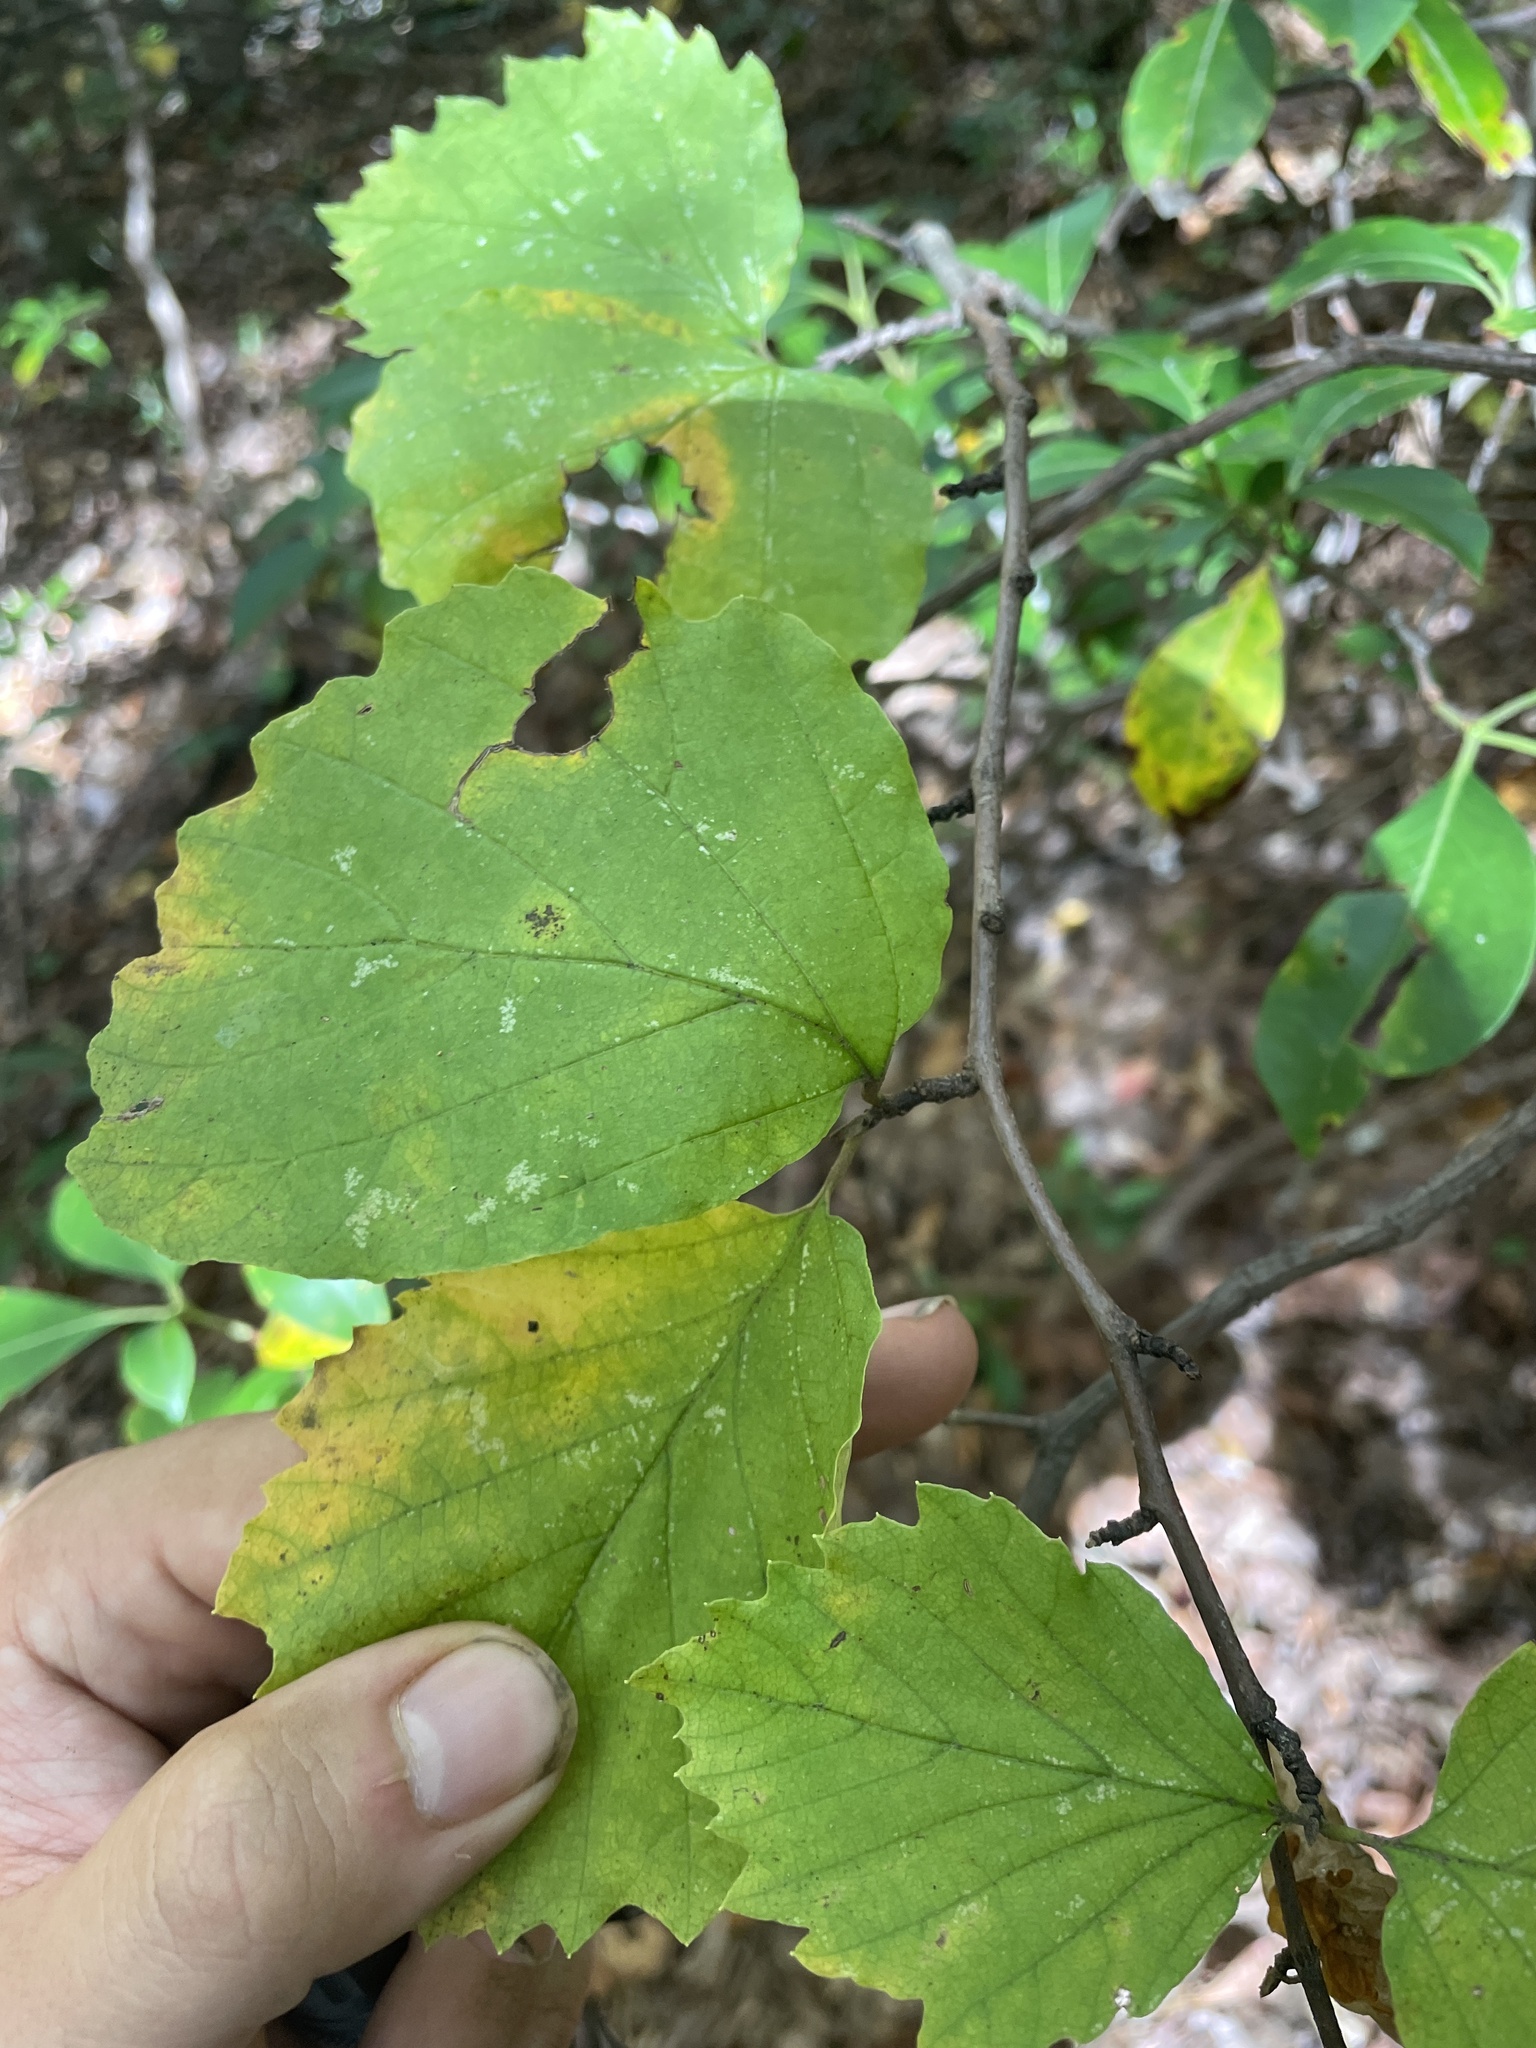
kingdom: Plantae
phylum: Tracheophyta
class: Magnoliopsida
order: Saxifragales
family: Hamamelidaceae
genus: Fothergilla
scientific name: Fothergilla latifolia
